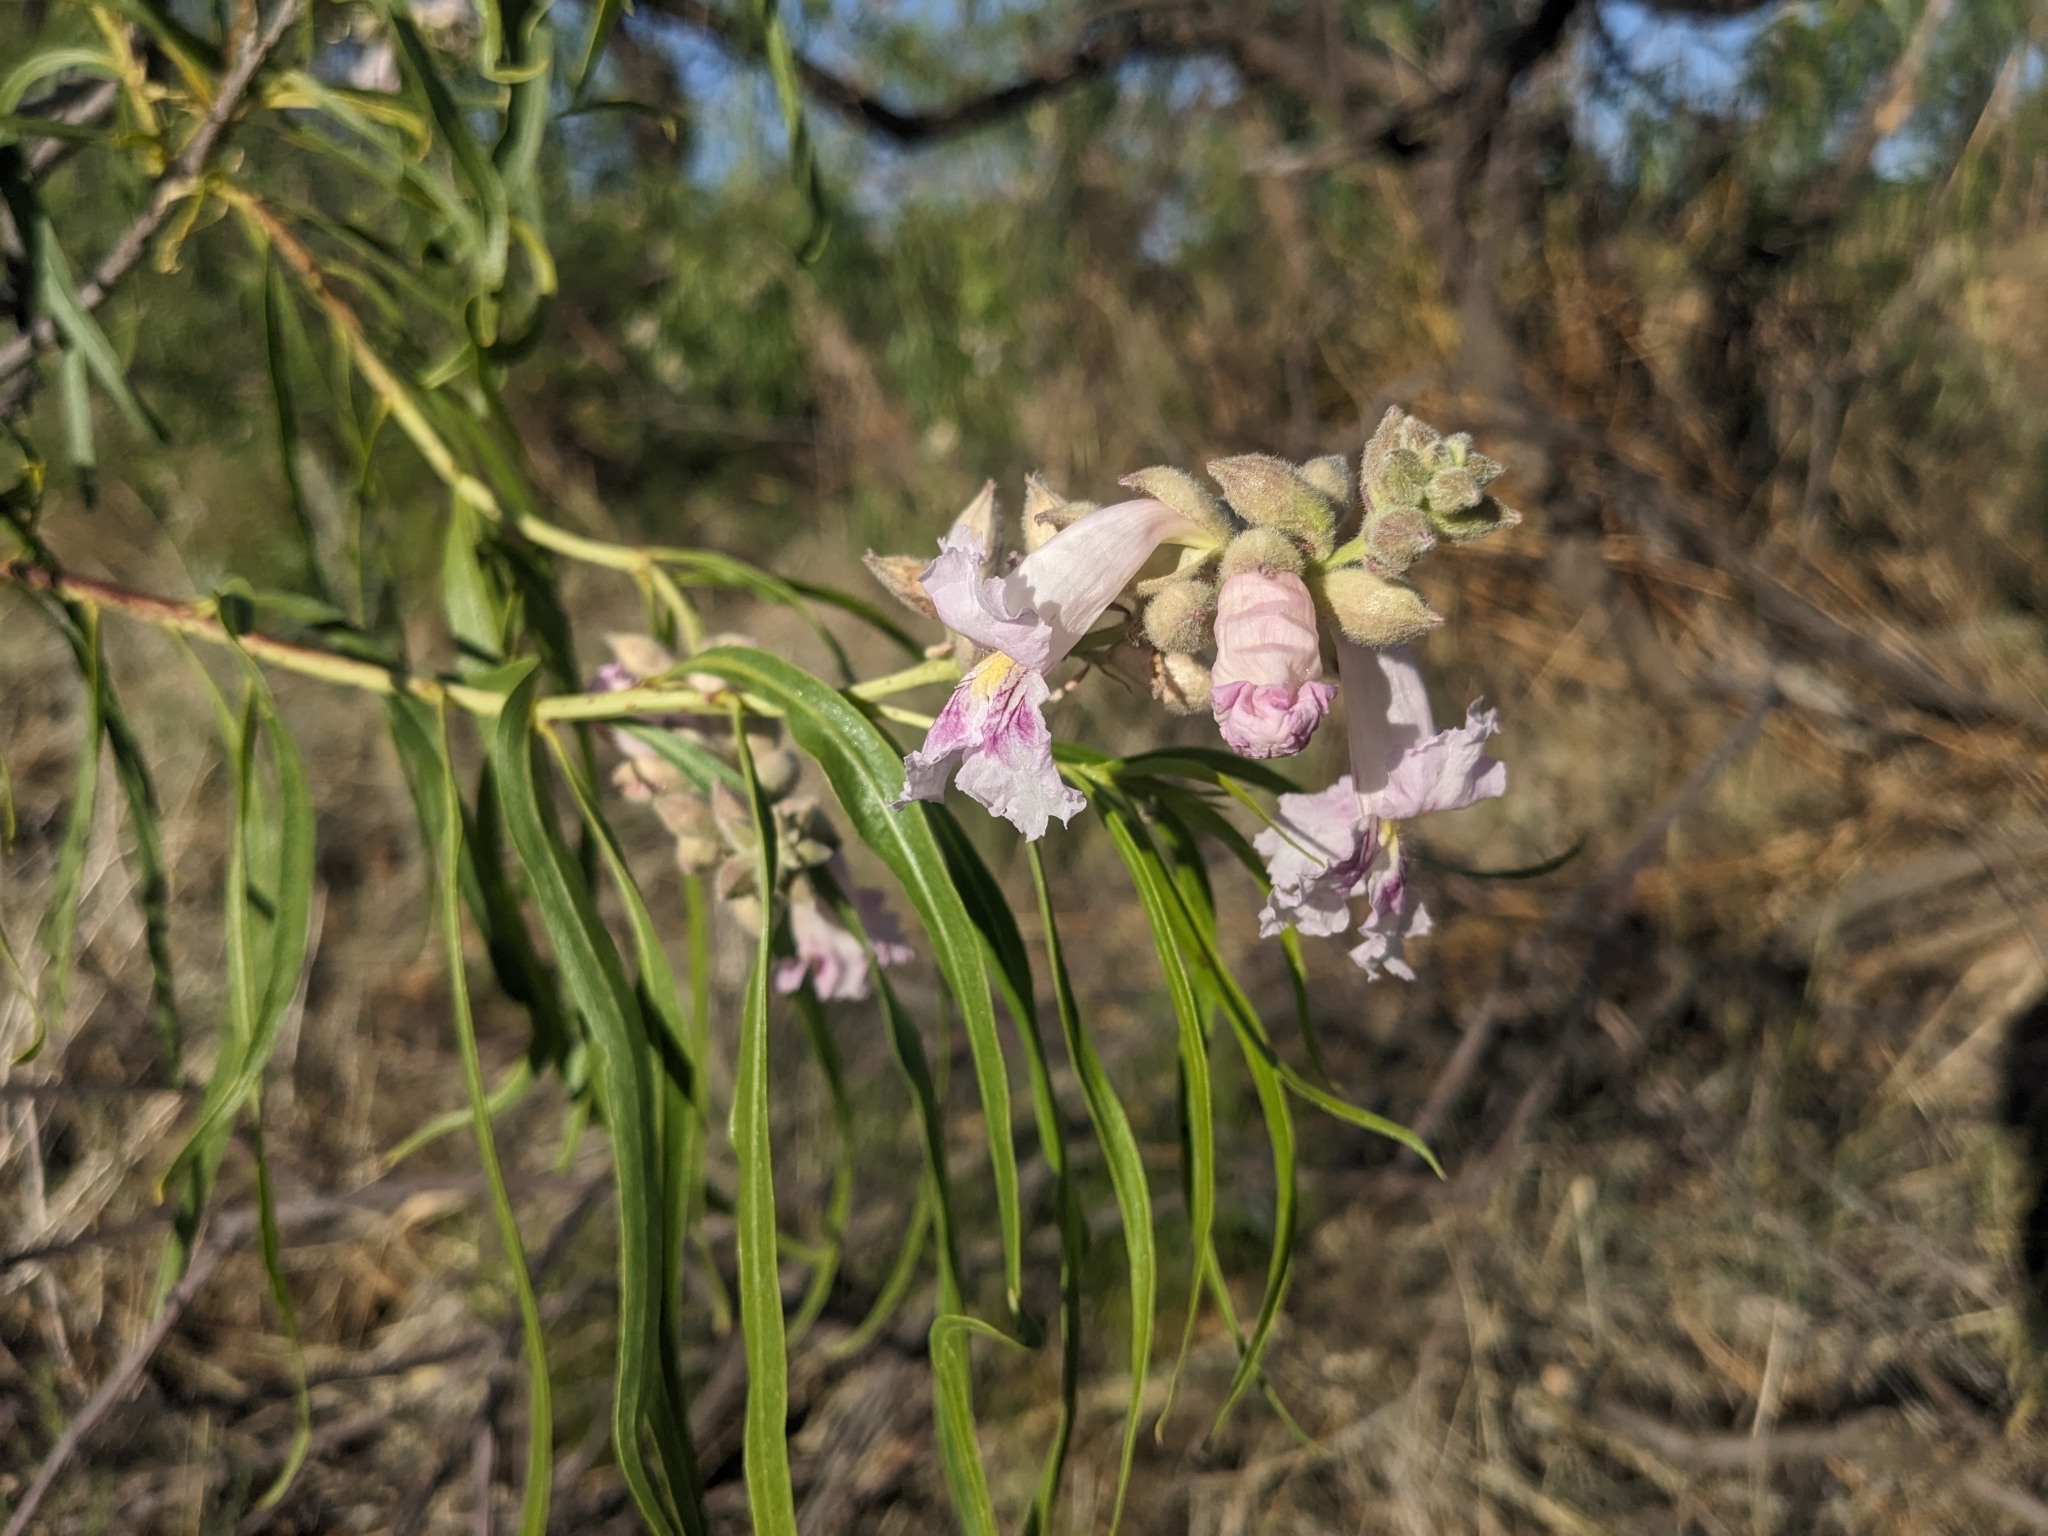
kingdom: Plantae
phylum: Tracheophyta
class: Magnoliopsida
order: Lamiales
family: Bignoniaceae
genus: Chilopsis
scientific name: Chilopsis linearis
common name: Desert-willow
